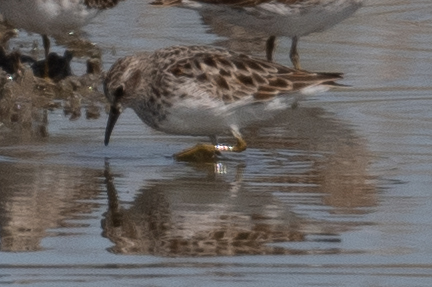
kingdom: Animalia
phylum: Chordata
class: Aves
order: Charadriiformes
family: Scolopacidae
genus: Calidris
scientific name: Calidris minutilla
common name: Least sandpiper
